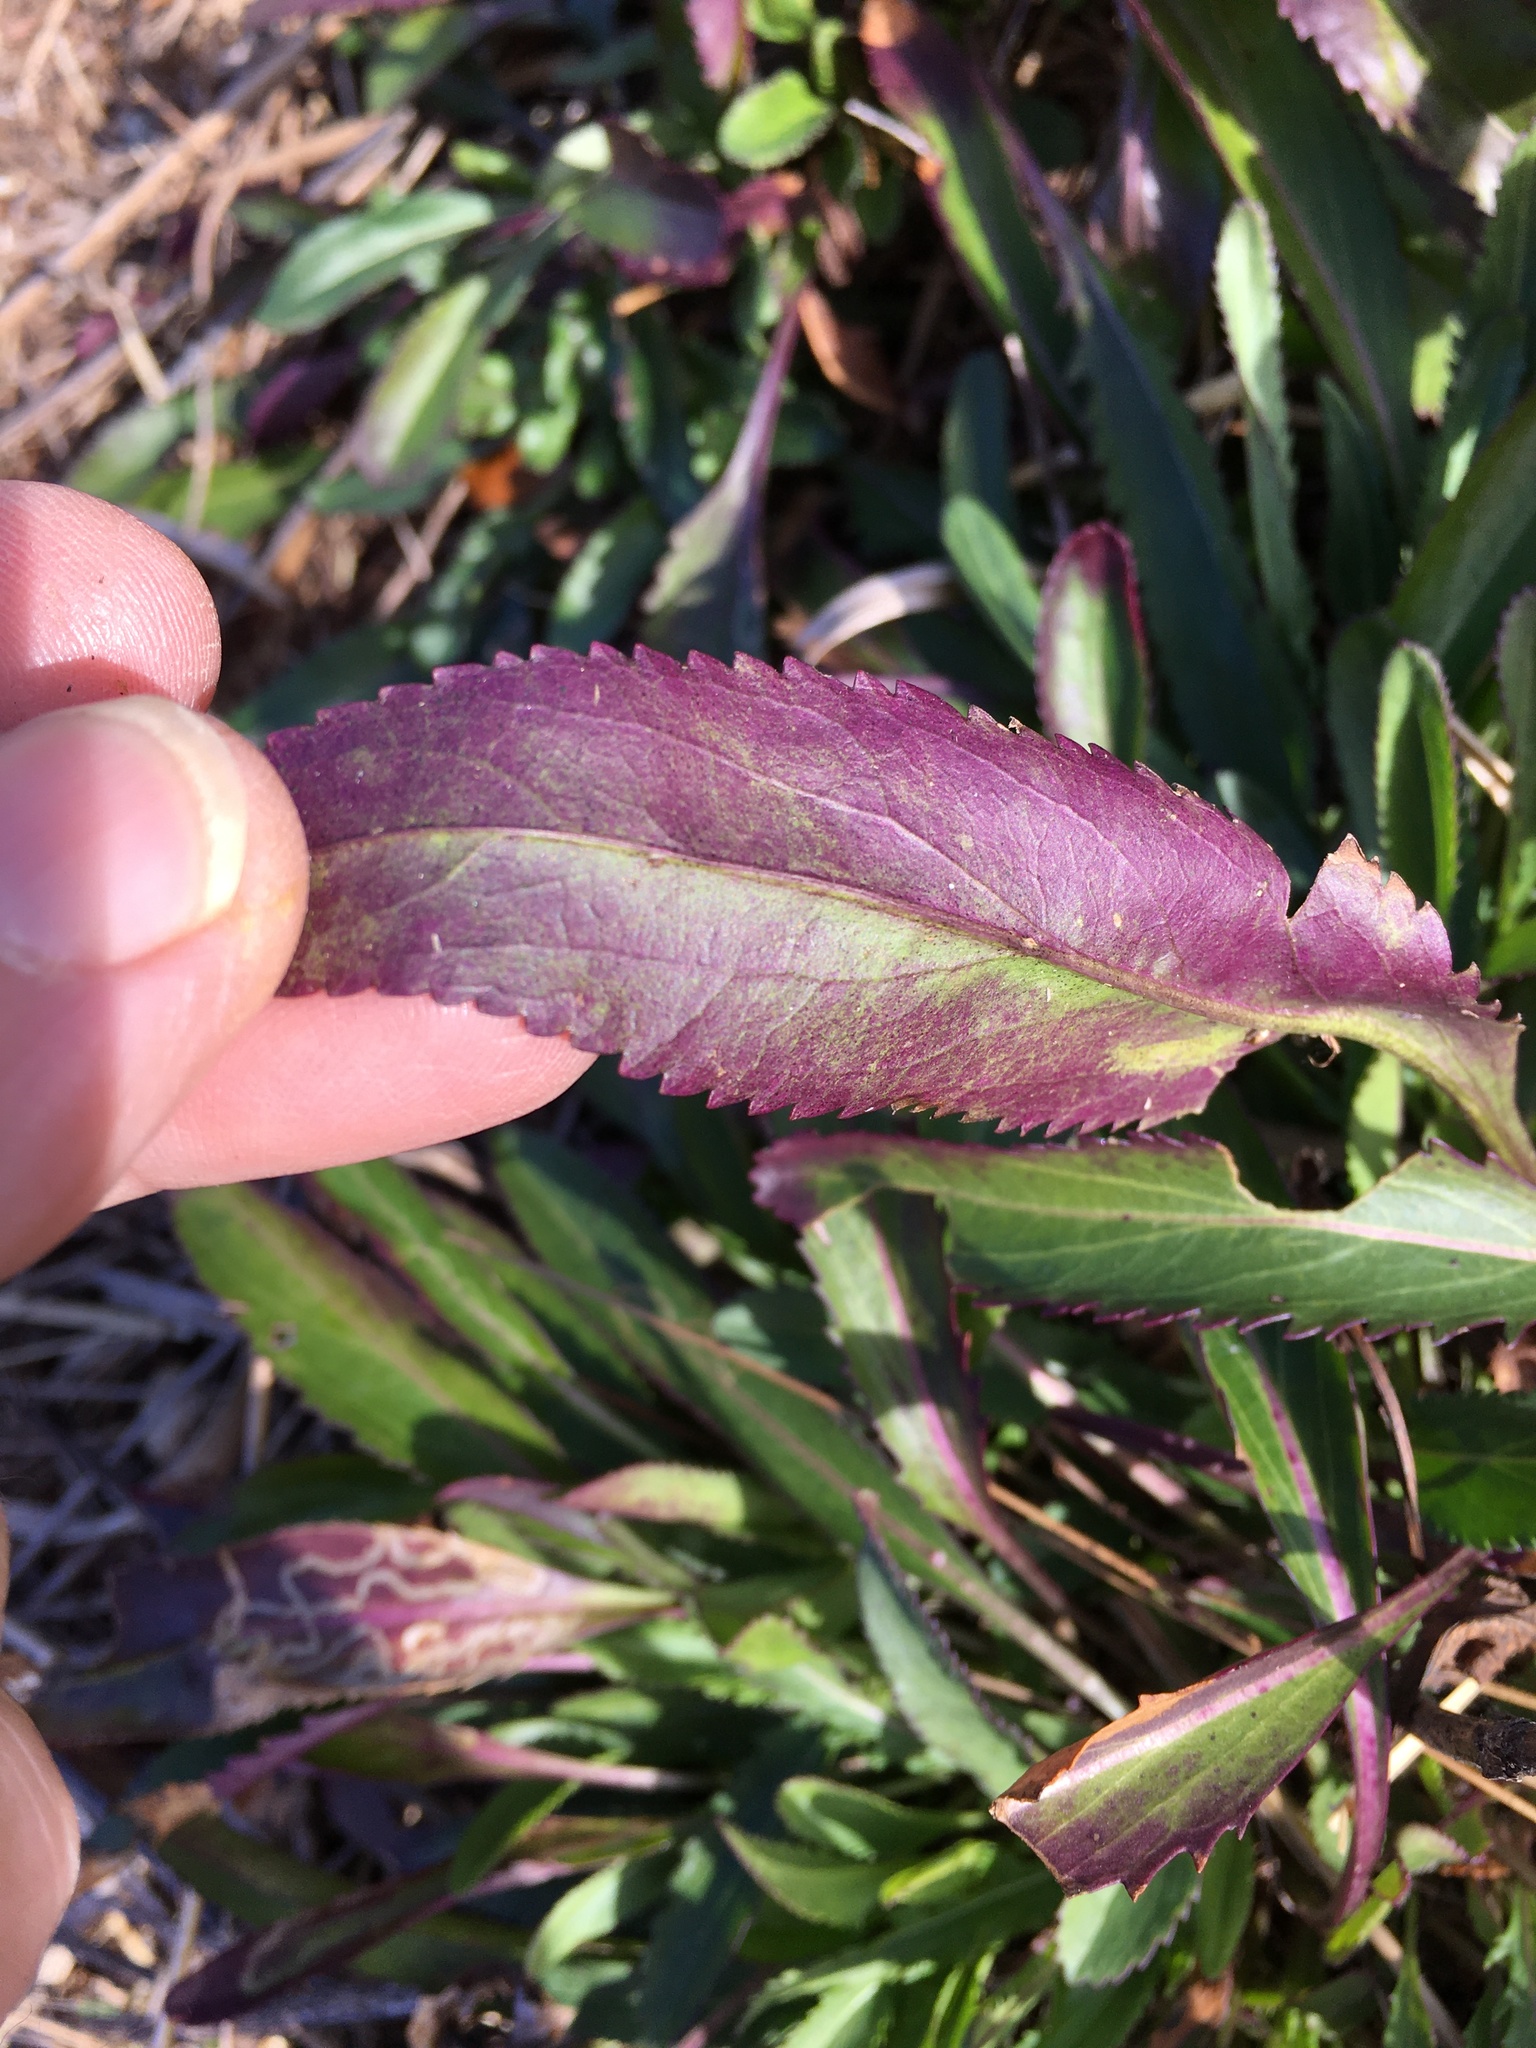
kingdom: Plantae
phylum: Tracheophyta
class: Magnoliopsida
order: Asterales
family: Asteraceae
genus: Packera
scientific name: Packera anonyma
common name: Small ragwort
